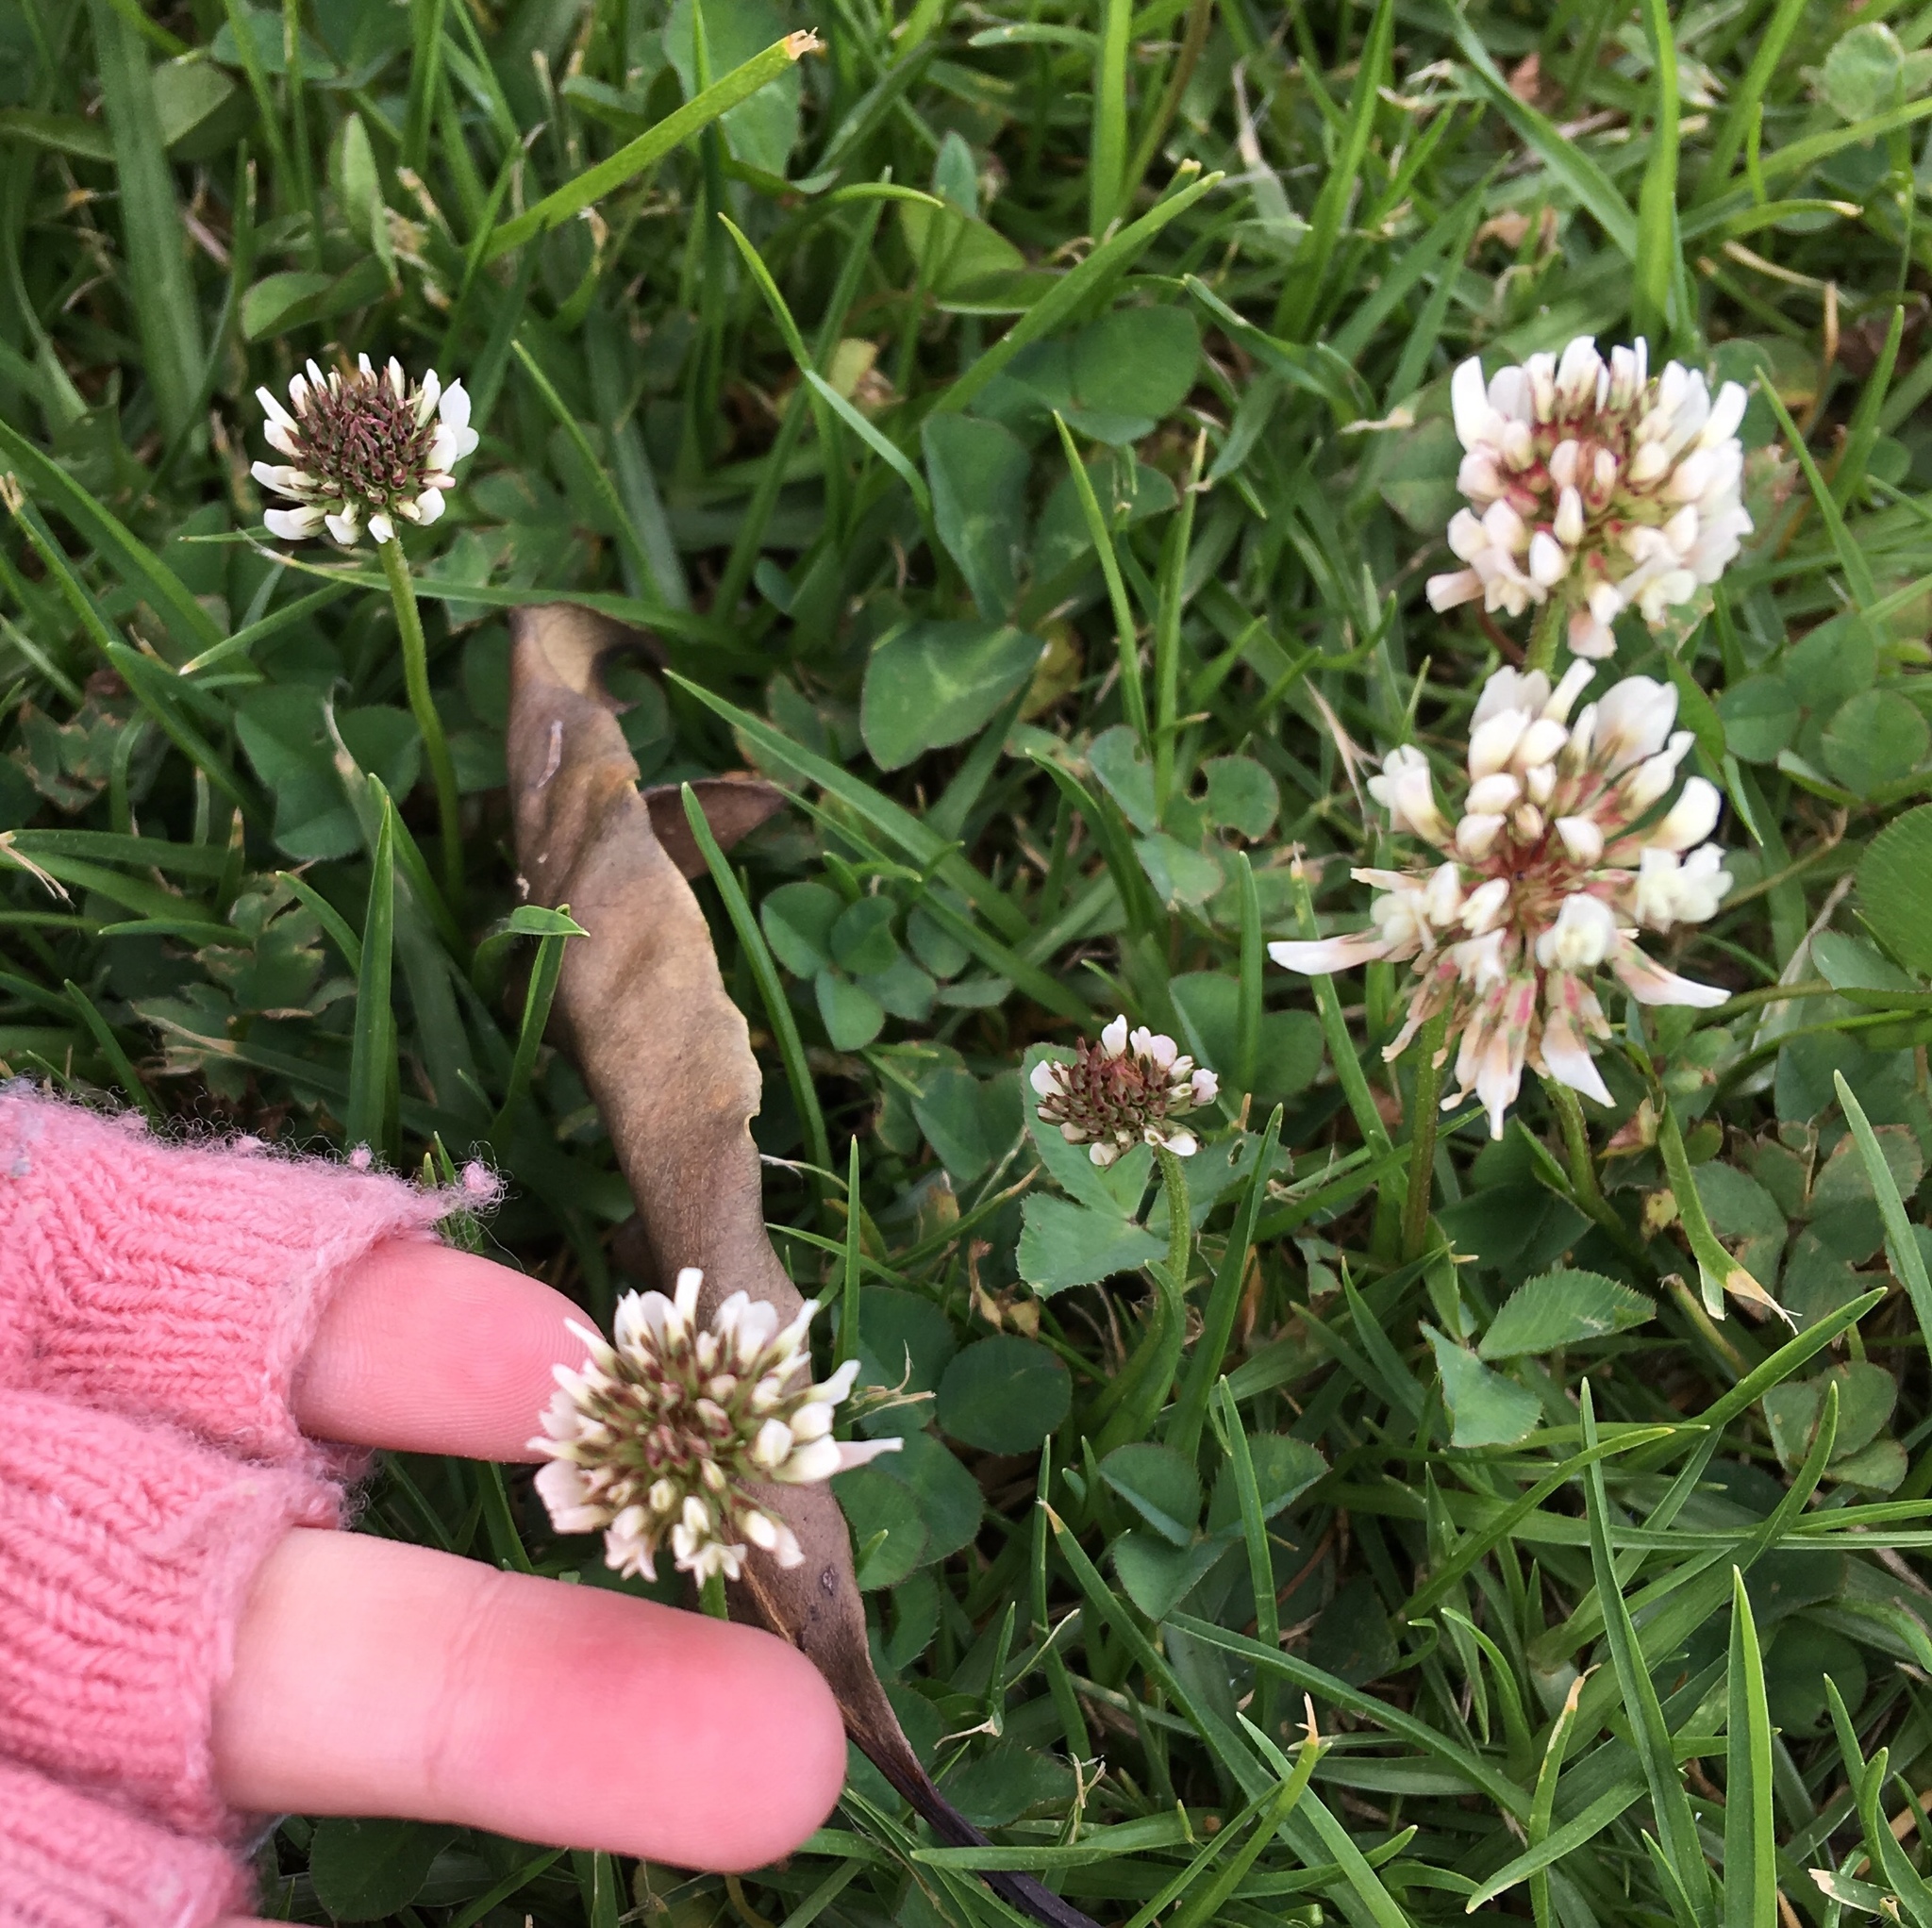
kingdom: Plantae
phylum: Tracheophyta
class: Magnoliopsida
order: Fabales
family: Fabaceae
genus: Trifolium
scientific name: Trifolium repens
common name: White clover
